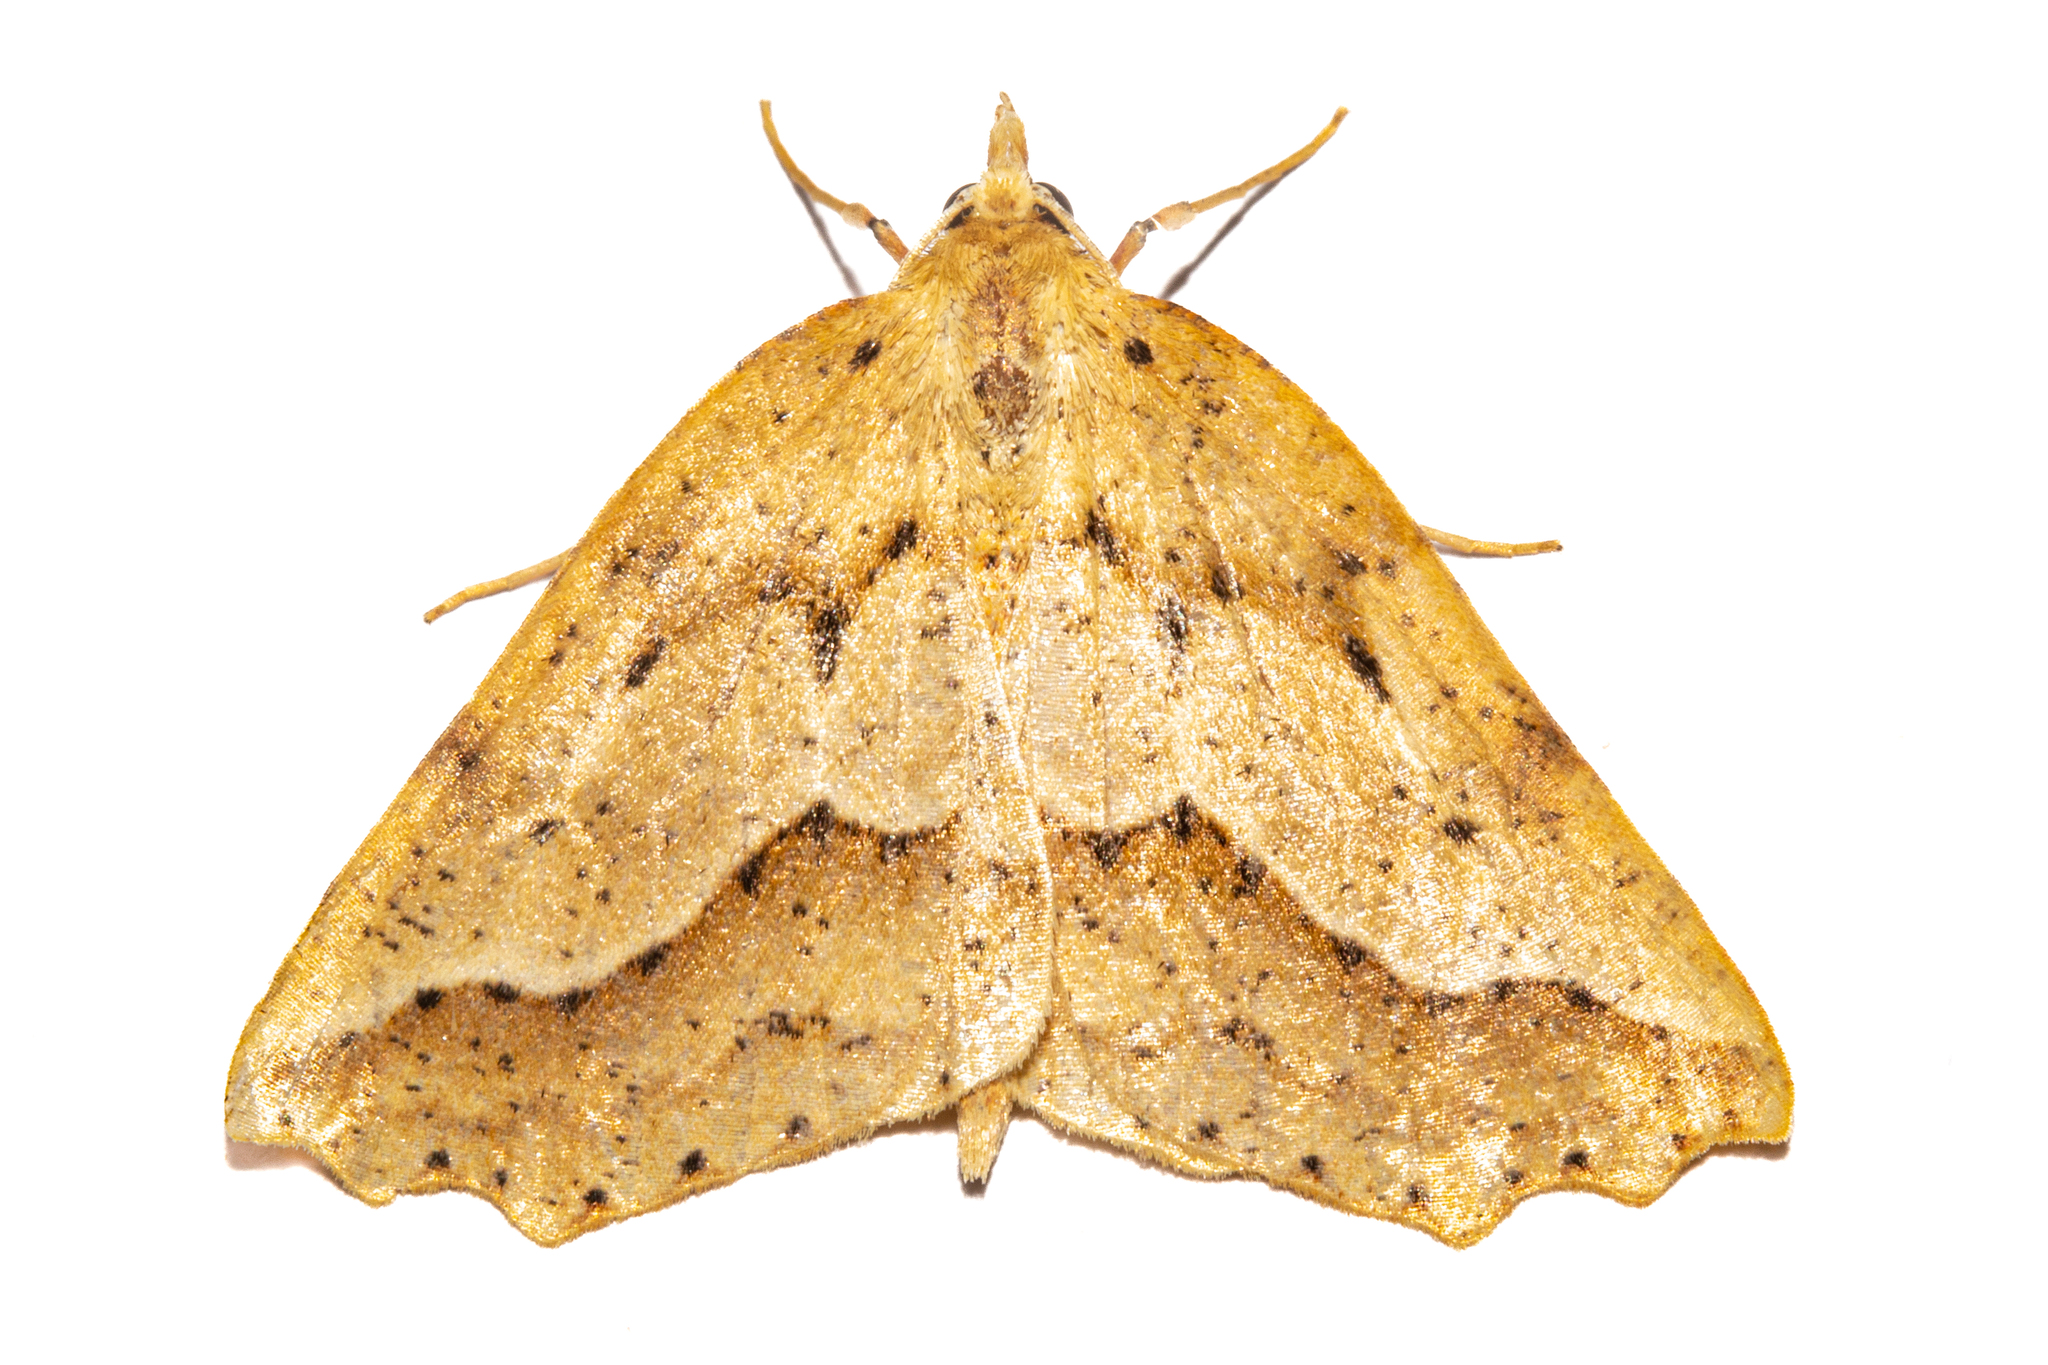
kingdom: Animalia
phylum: Arthropoda
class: Insecta
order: Lepidoptera
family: Geometridae
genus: Ischalis
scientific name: Ischalis variabilis
